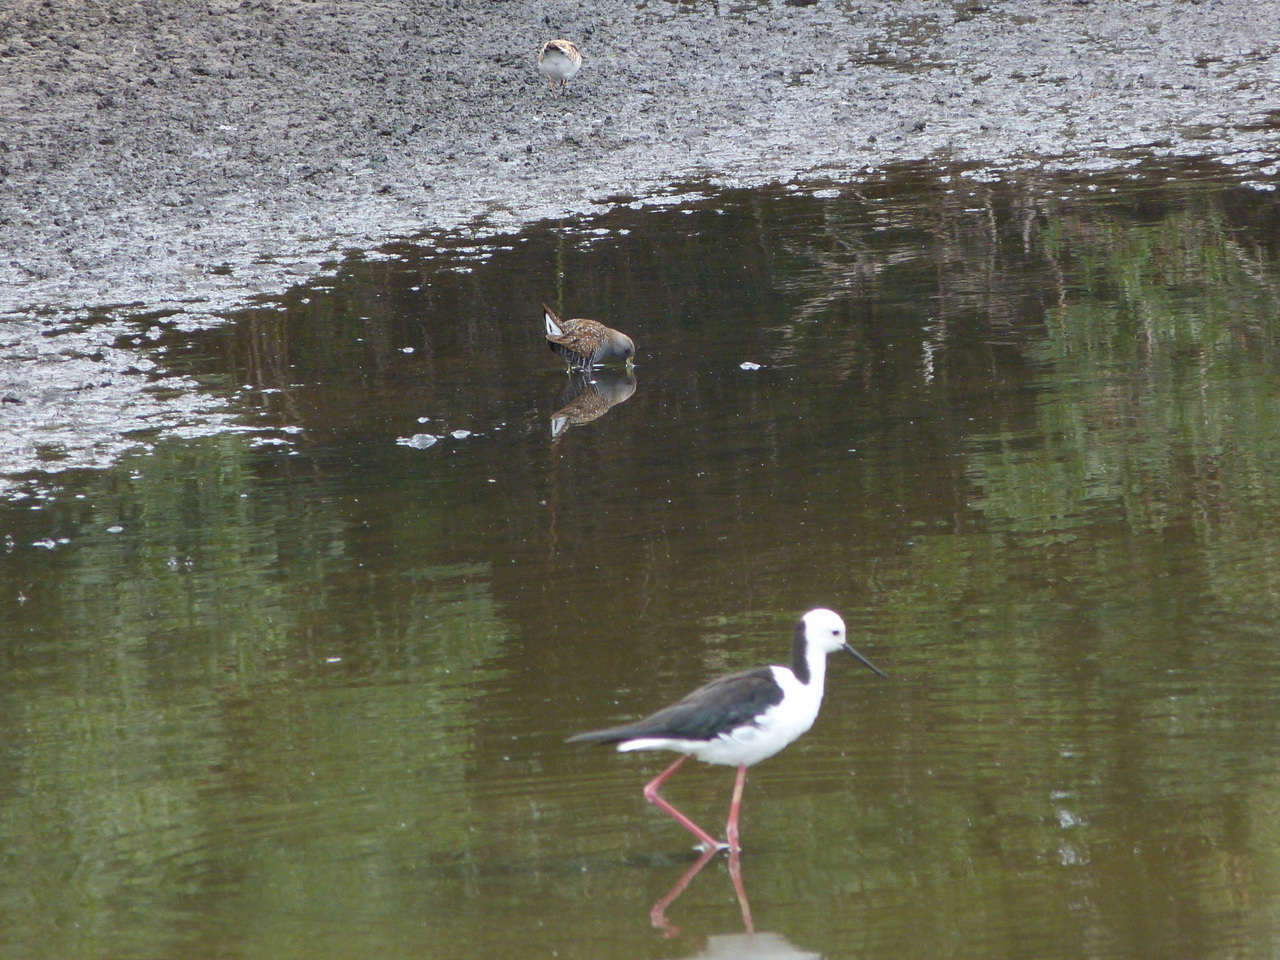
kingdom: Animalia
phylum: Chordata
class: Aves
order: Charadriiformes
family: Recurvirostridae
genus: Himantopus
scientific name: Himantopus leucocephalus
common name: White-headed stilt
